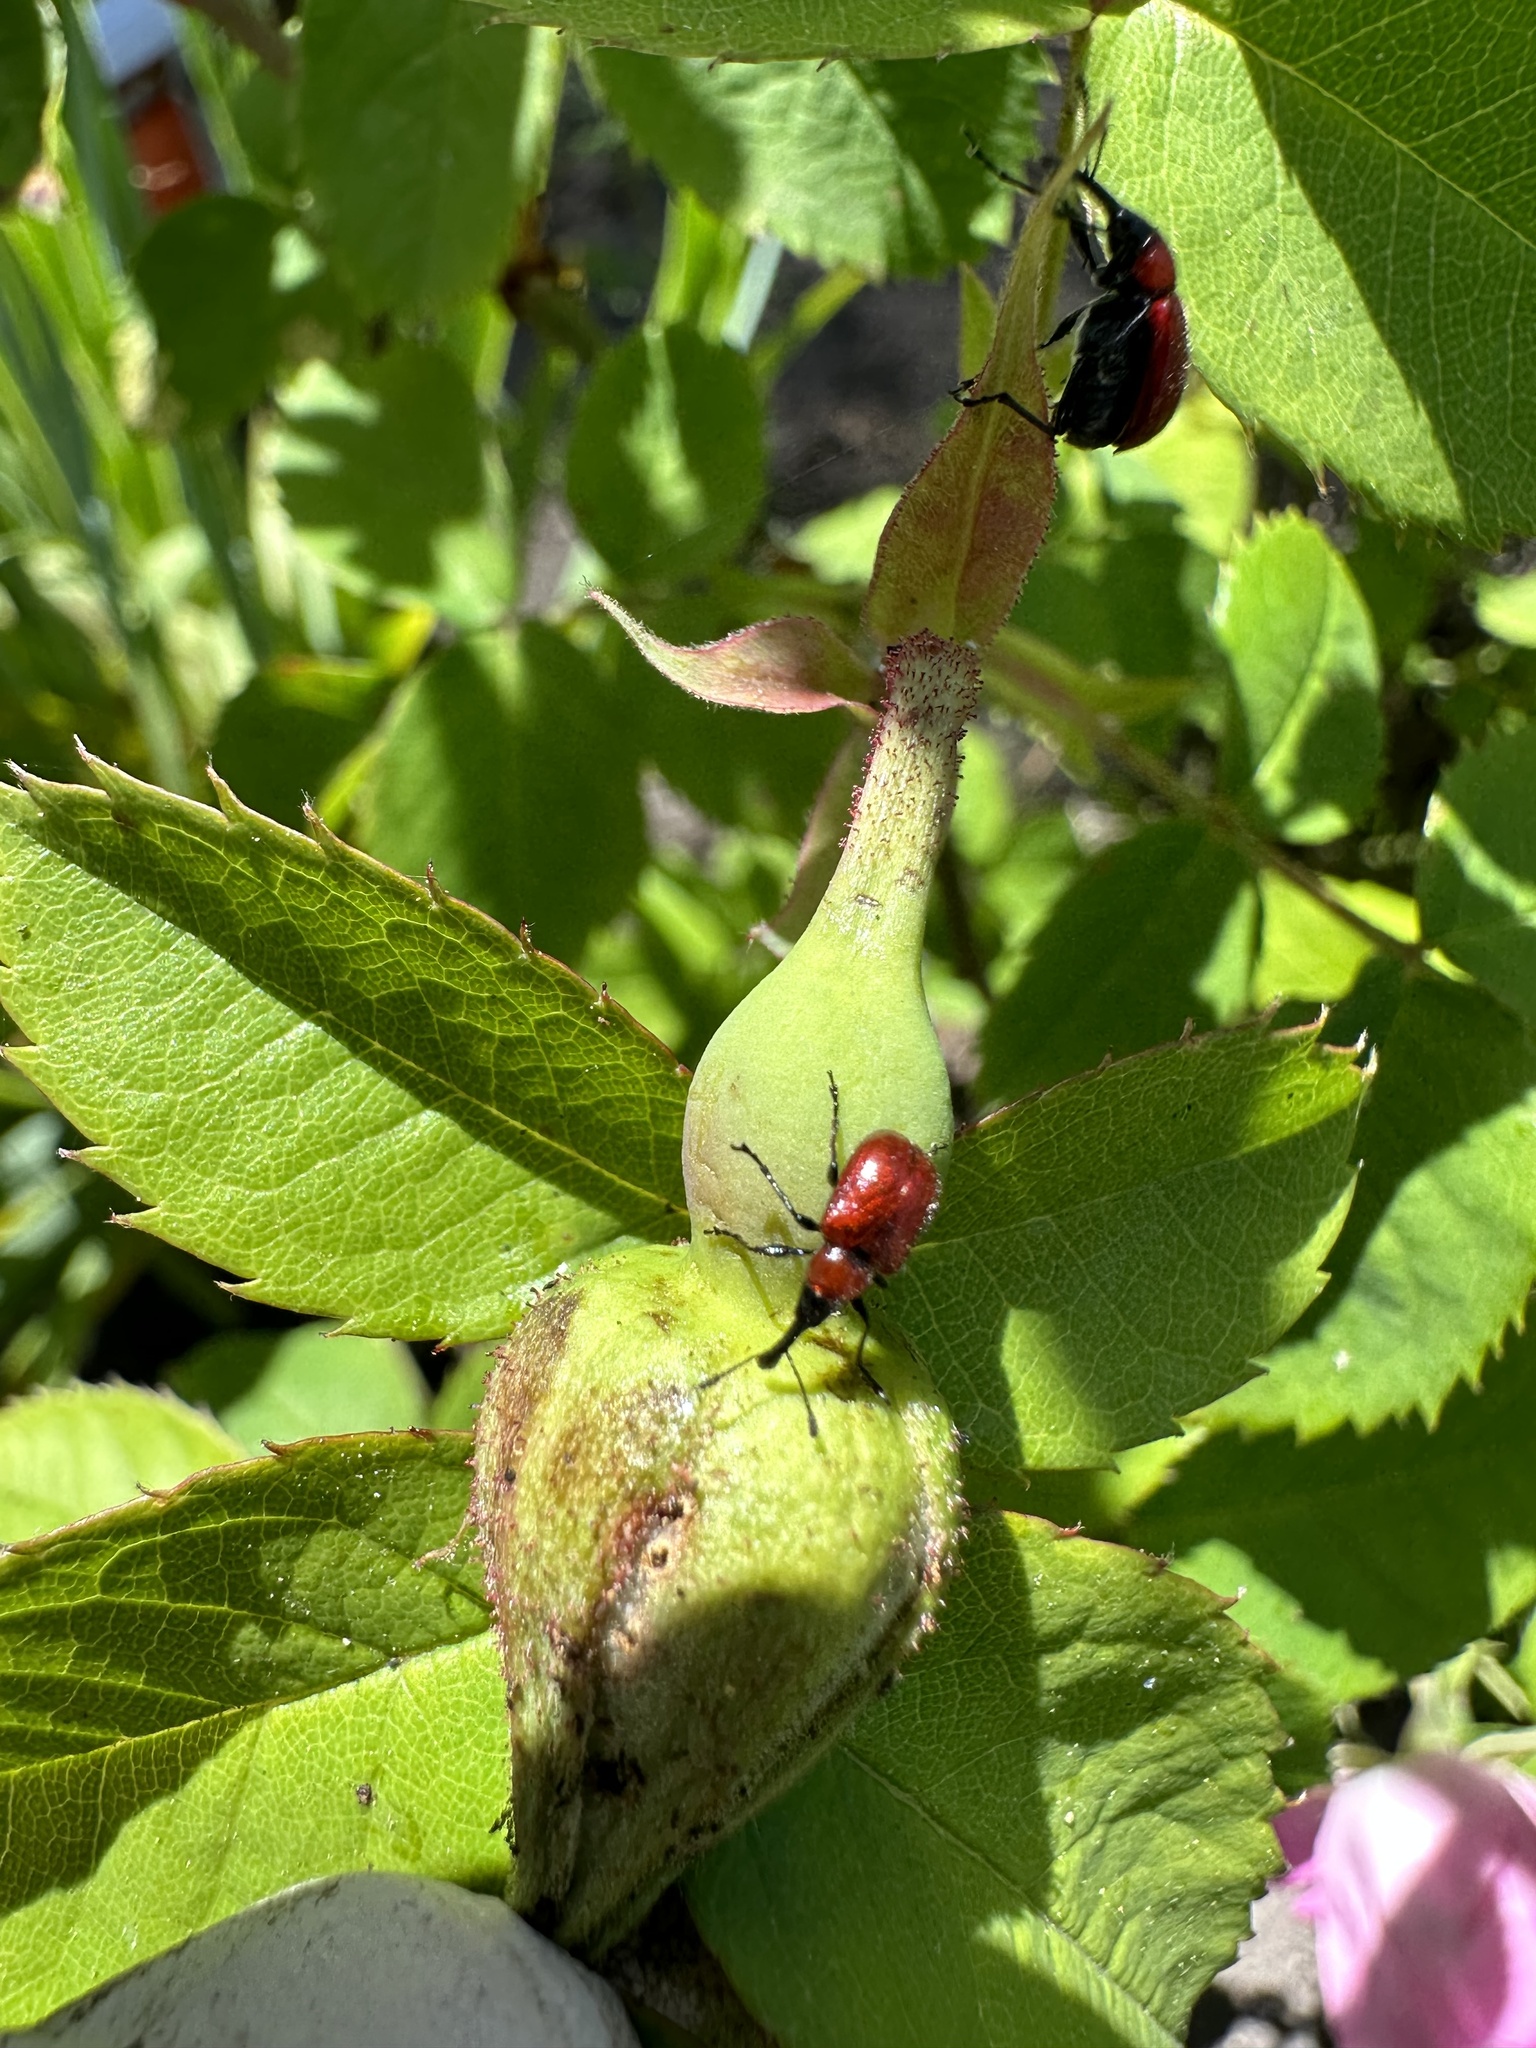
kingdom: Animalia
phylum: Arthropoda
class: Insecta
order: Coleoptera
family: Attelabidae
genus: Merhynchites
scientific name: Merhynchites bicolor
